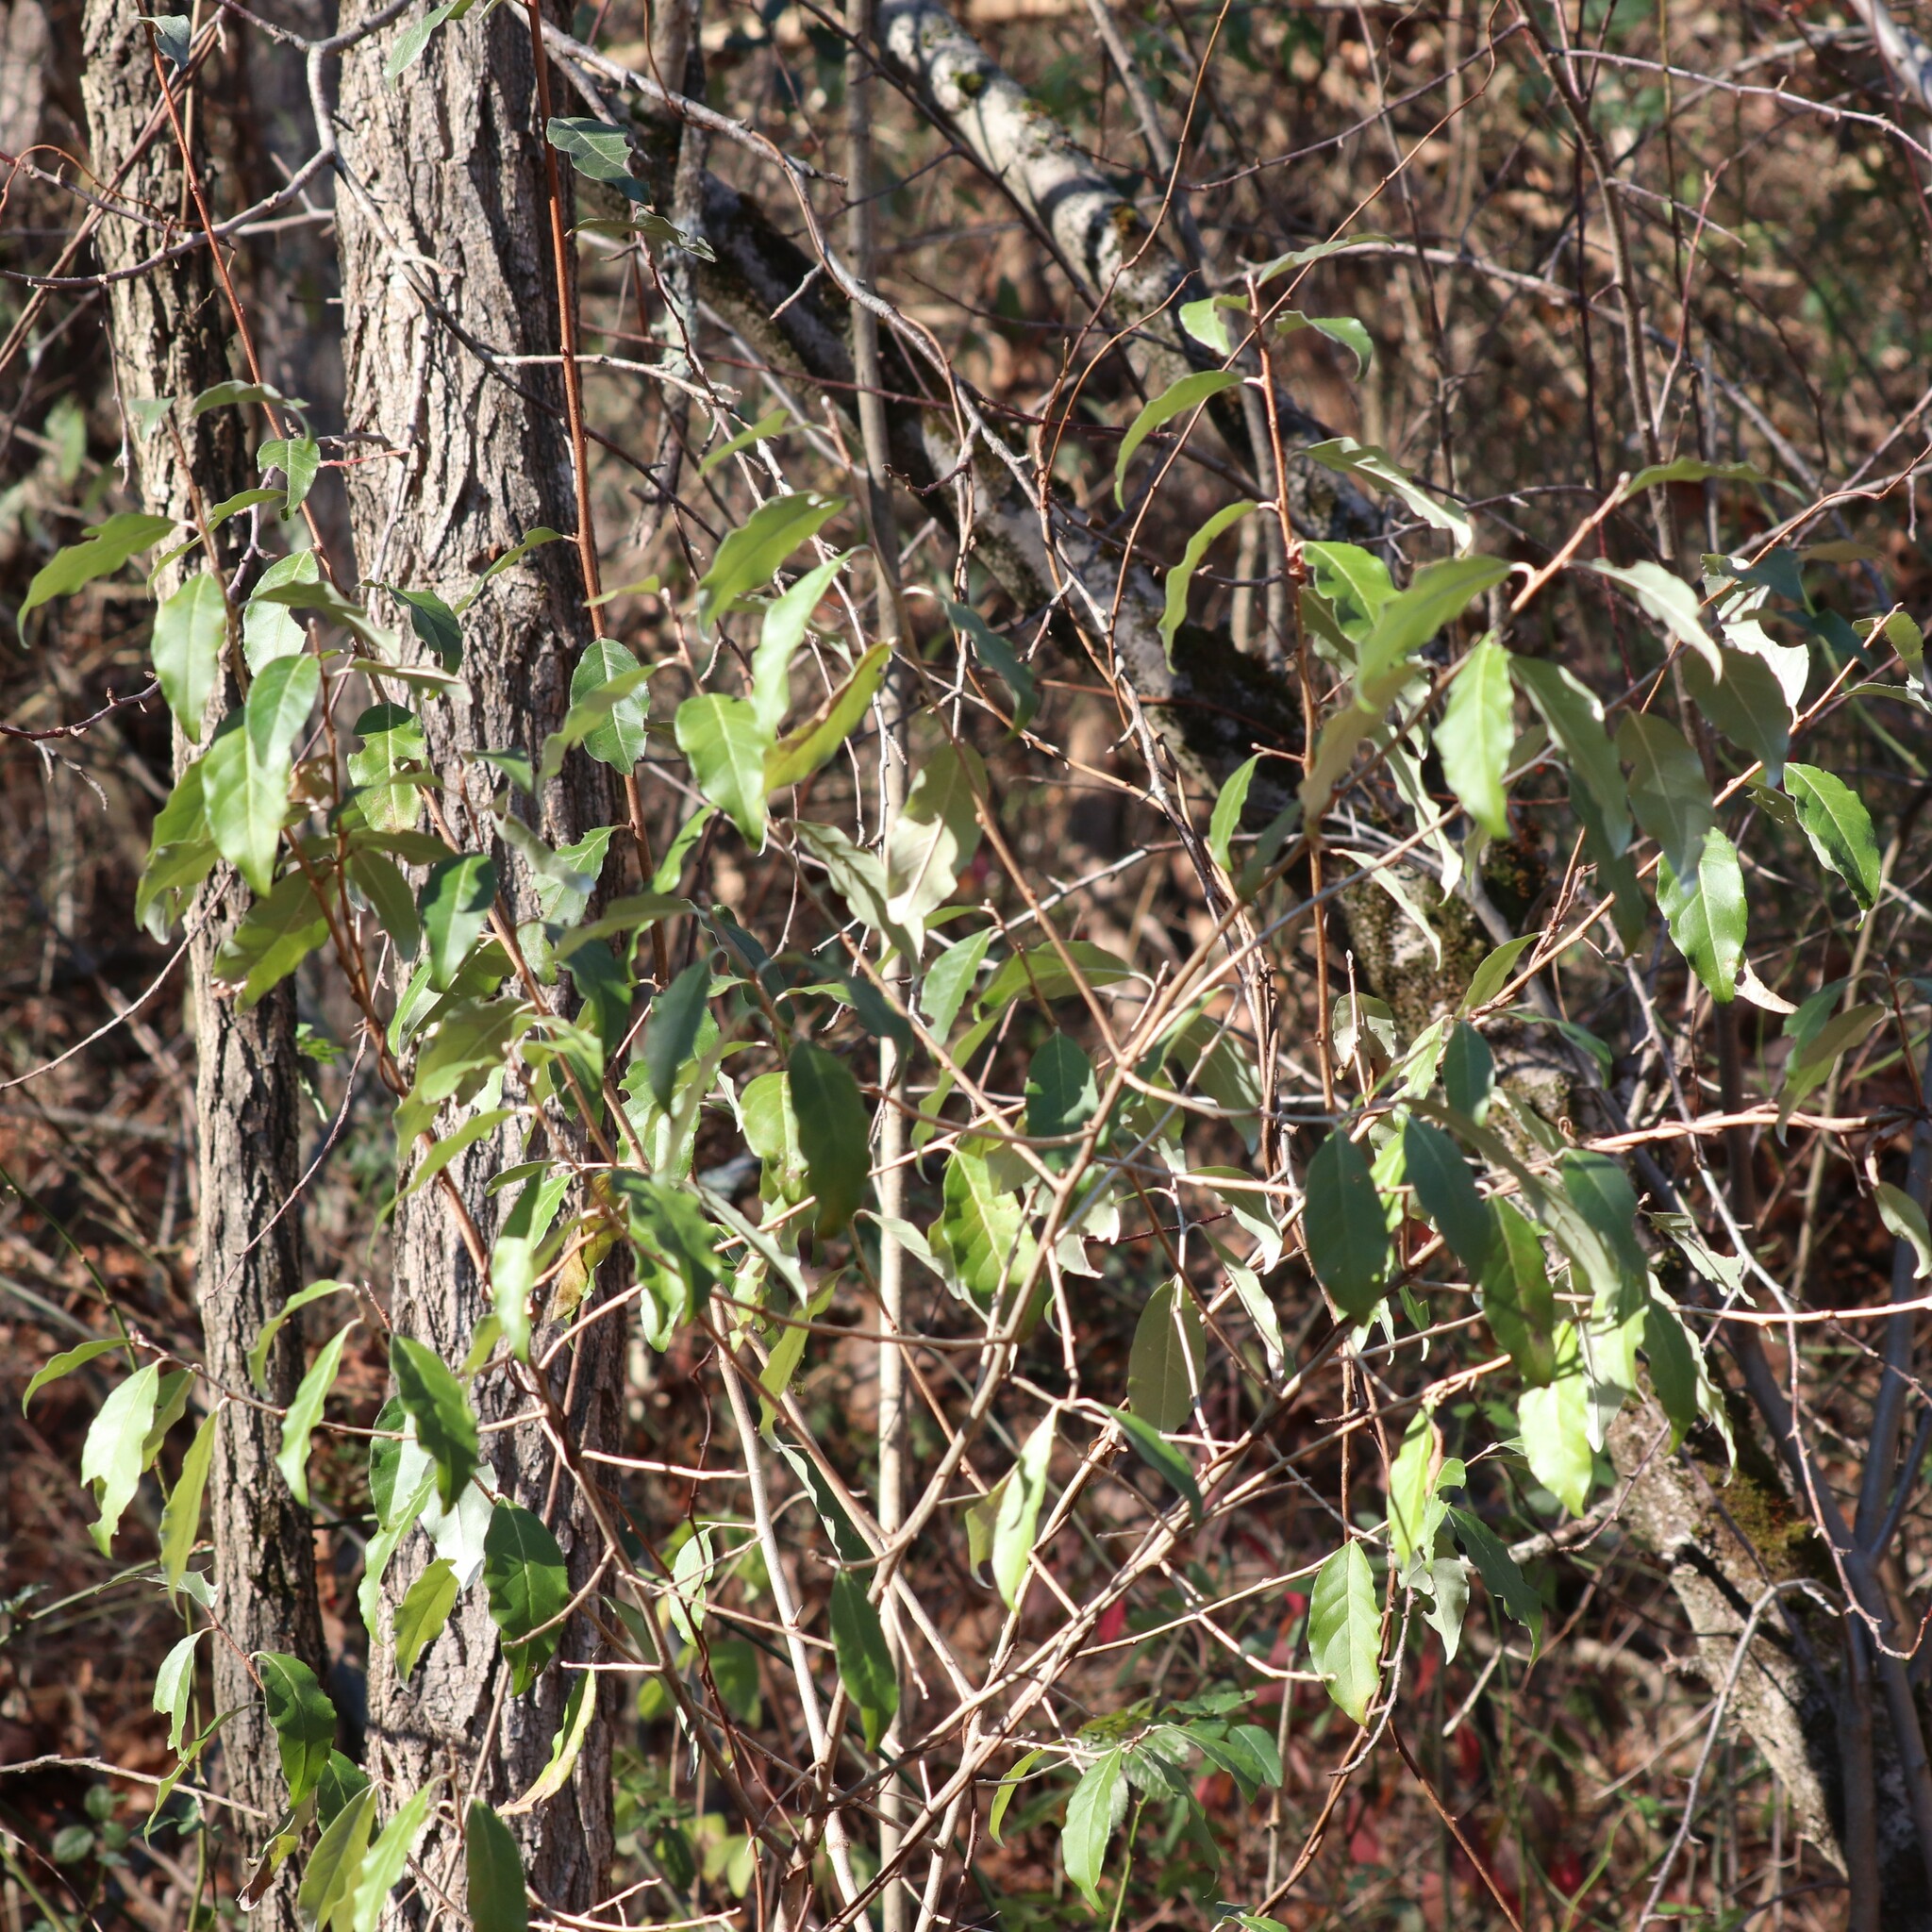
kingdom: Plantae
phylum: Tracheophyta
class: Magnoliopsida
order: Rosales
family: Elaeagnaceae
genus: Elaeagnus
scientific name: Elaeagnus umbellata
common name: Autumn olive
